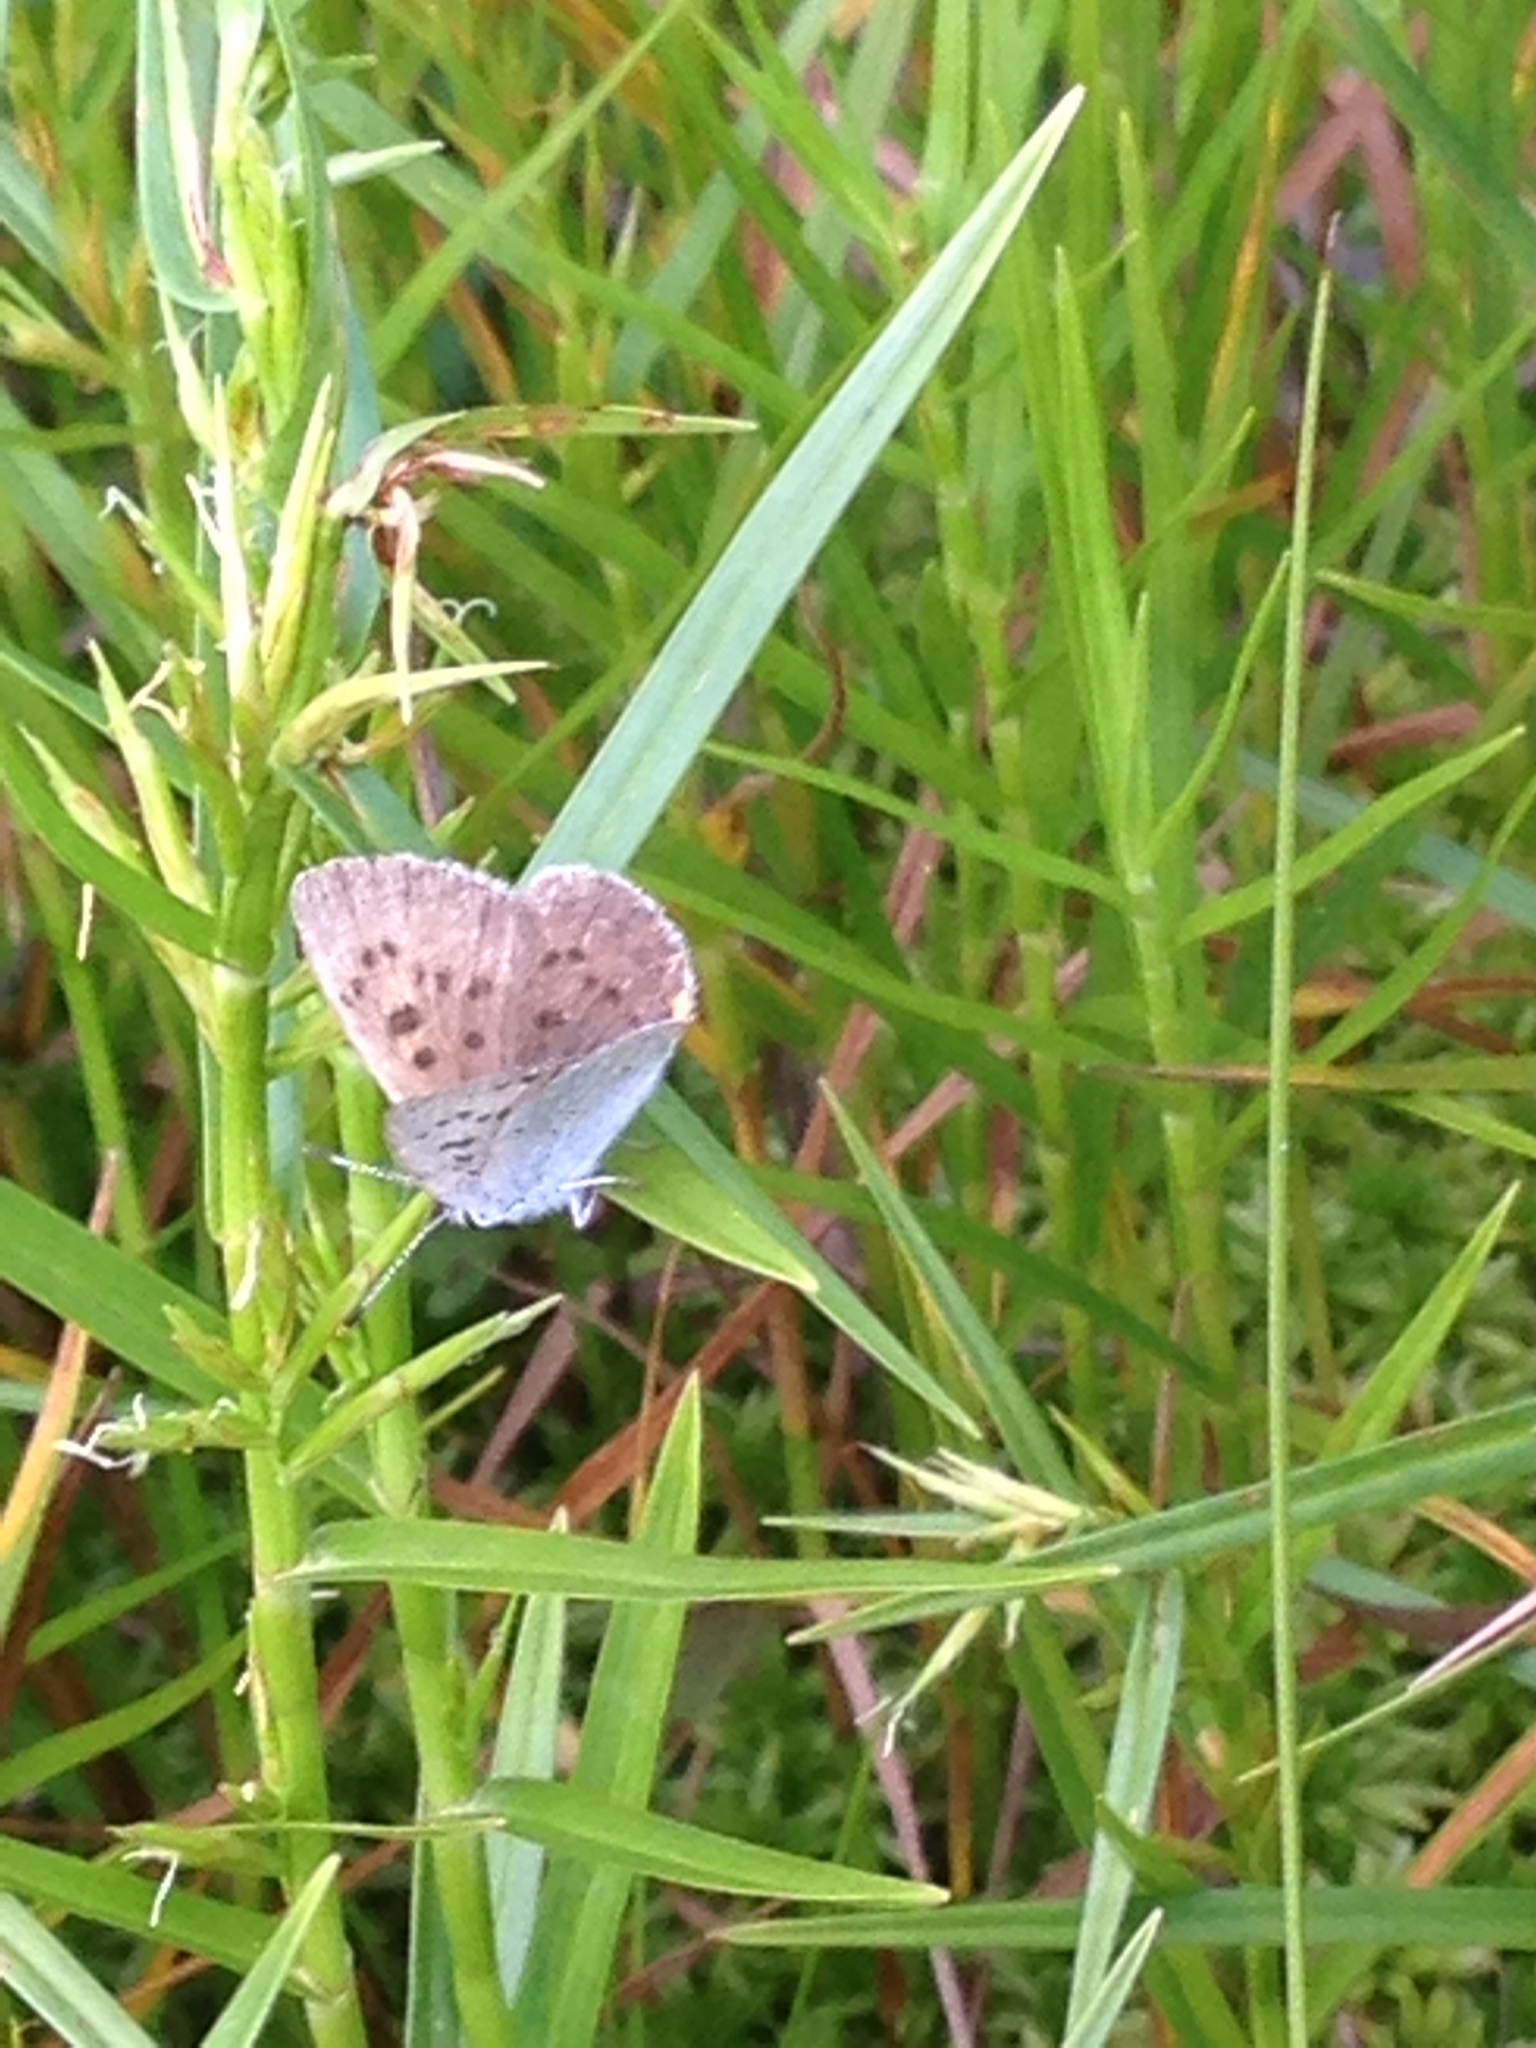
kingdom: Animalia
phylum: Arthropoda
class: Insecta
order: Lepidoptera
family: Lycaenidae
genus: Tharsalea
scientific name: Tharsalea epixanthe
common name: Bog copper
